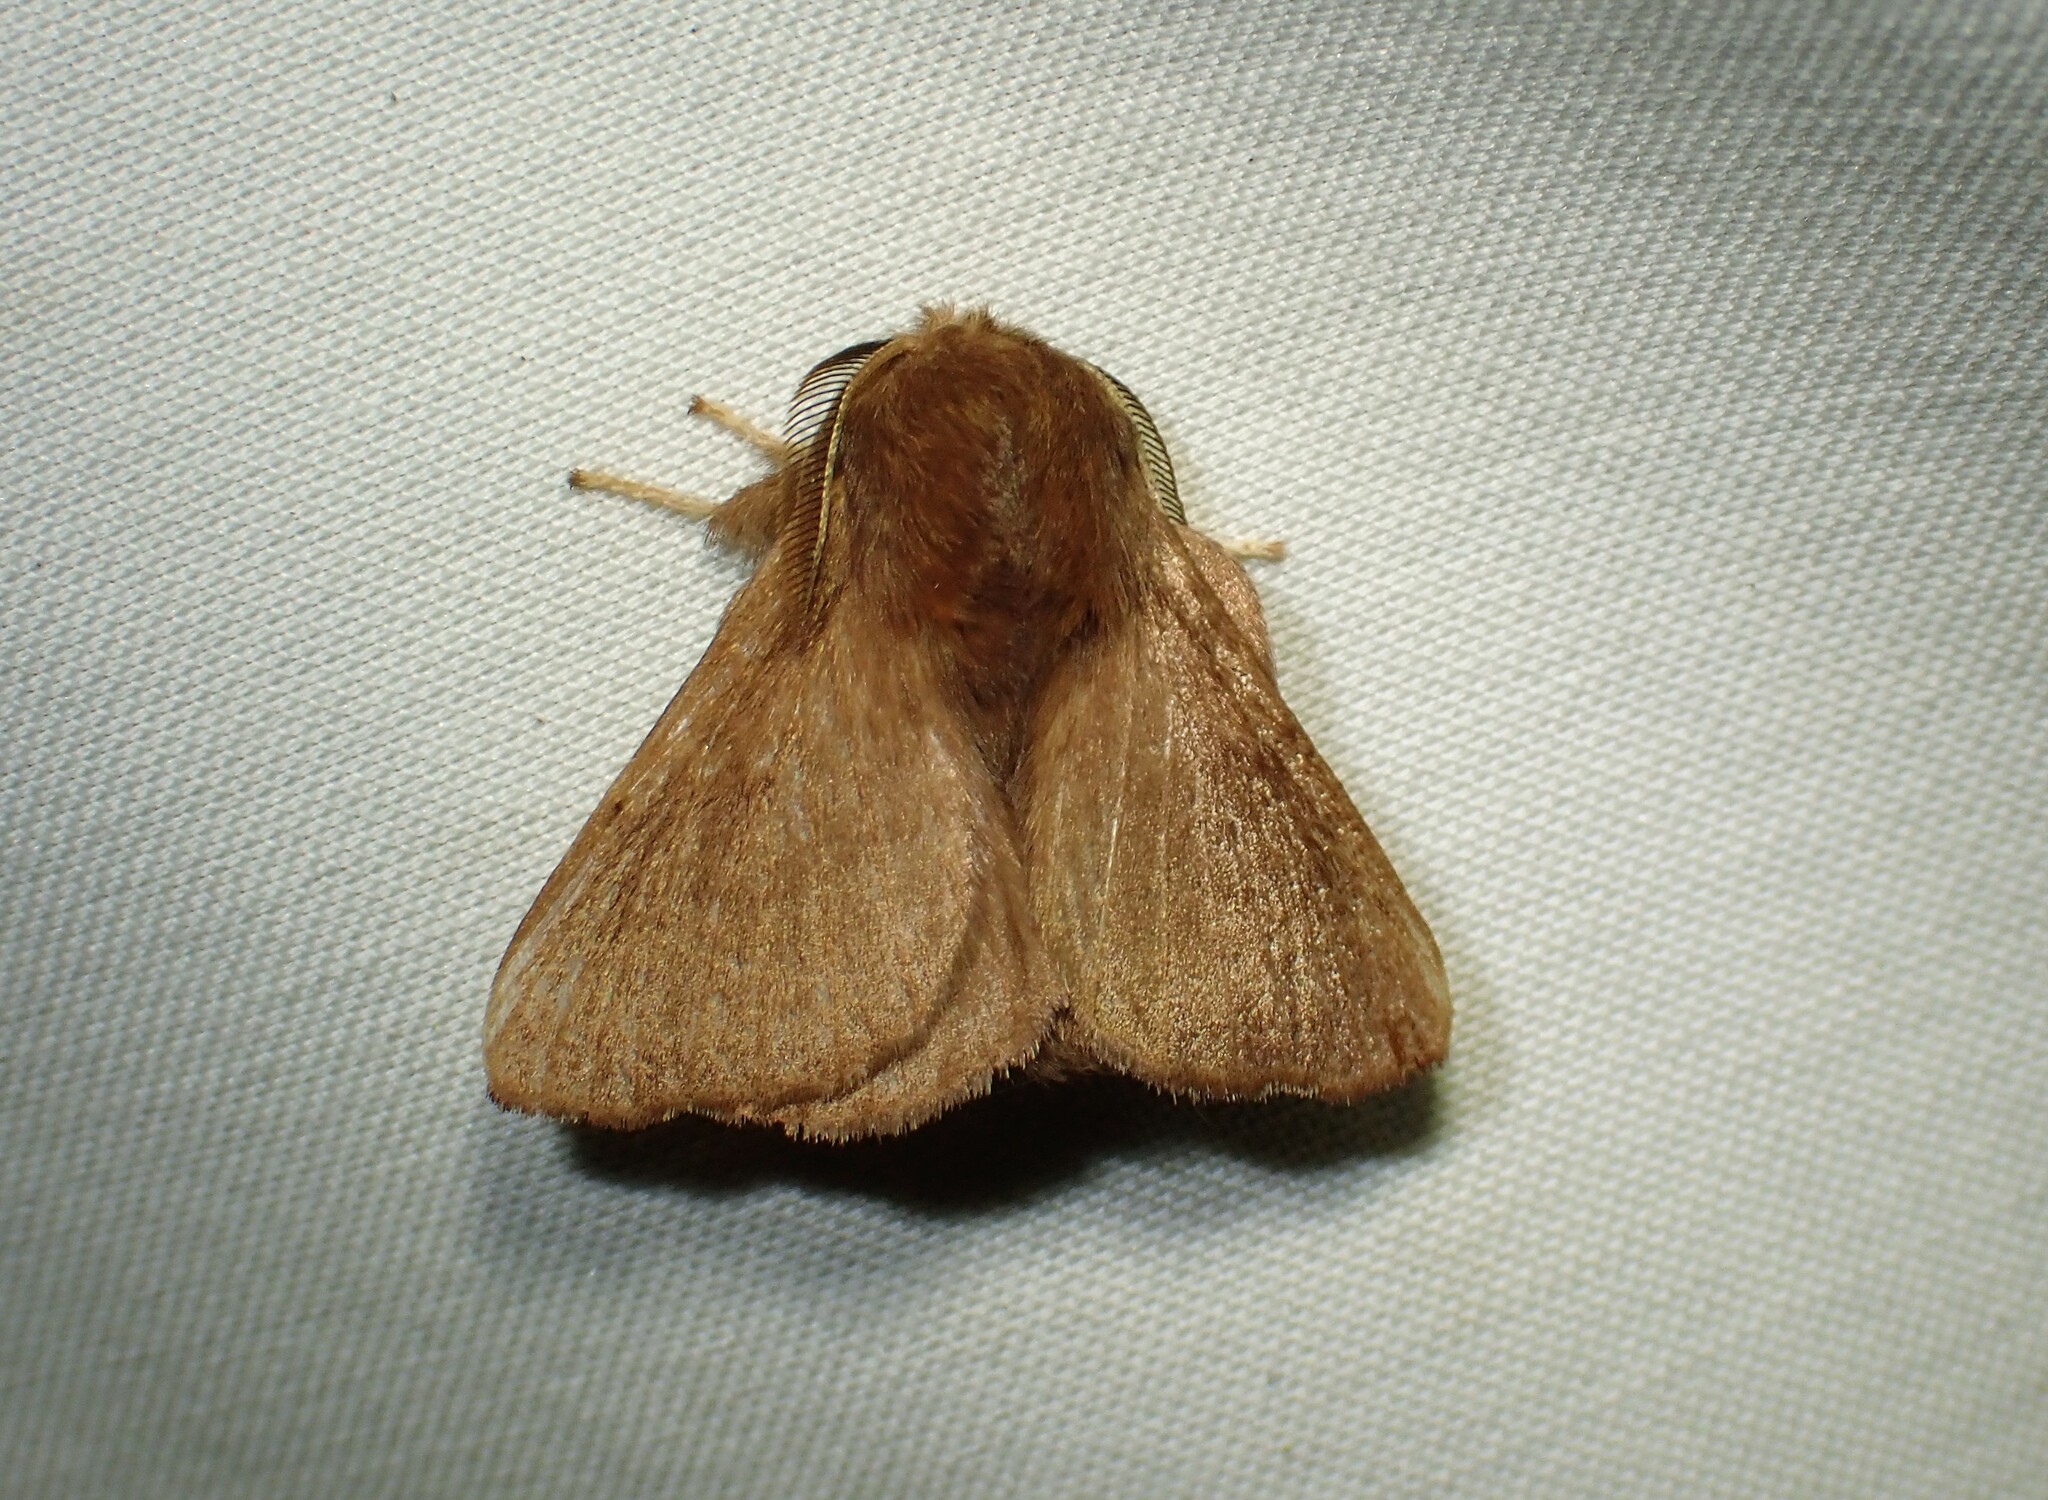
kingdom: Animalia
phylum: Arthropoda
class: Insecta
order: Lepidoptera
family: Lasiocampidae
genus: Malacosoma
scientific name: Malacosoma disstria
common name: Forest tent caterpillar
